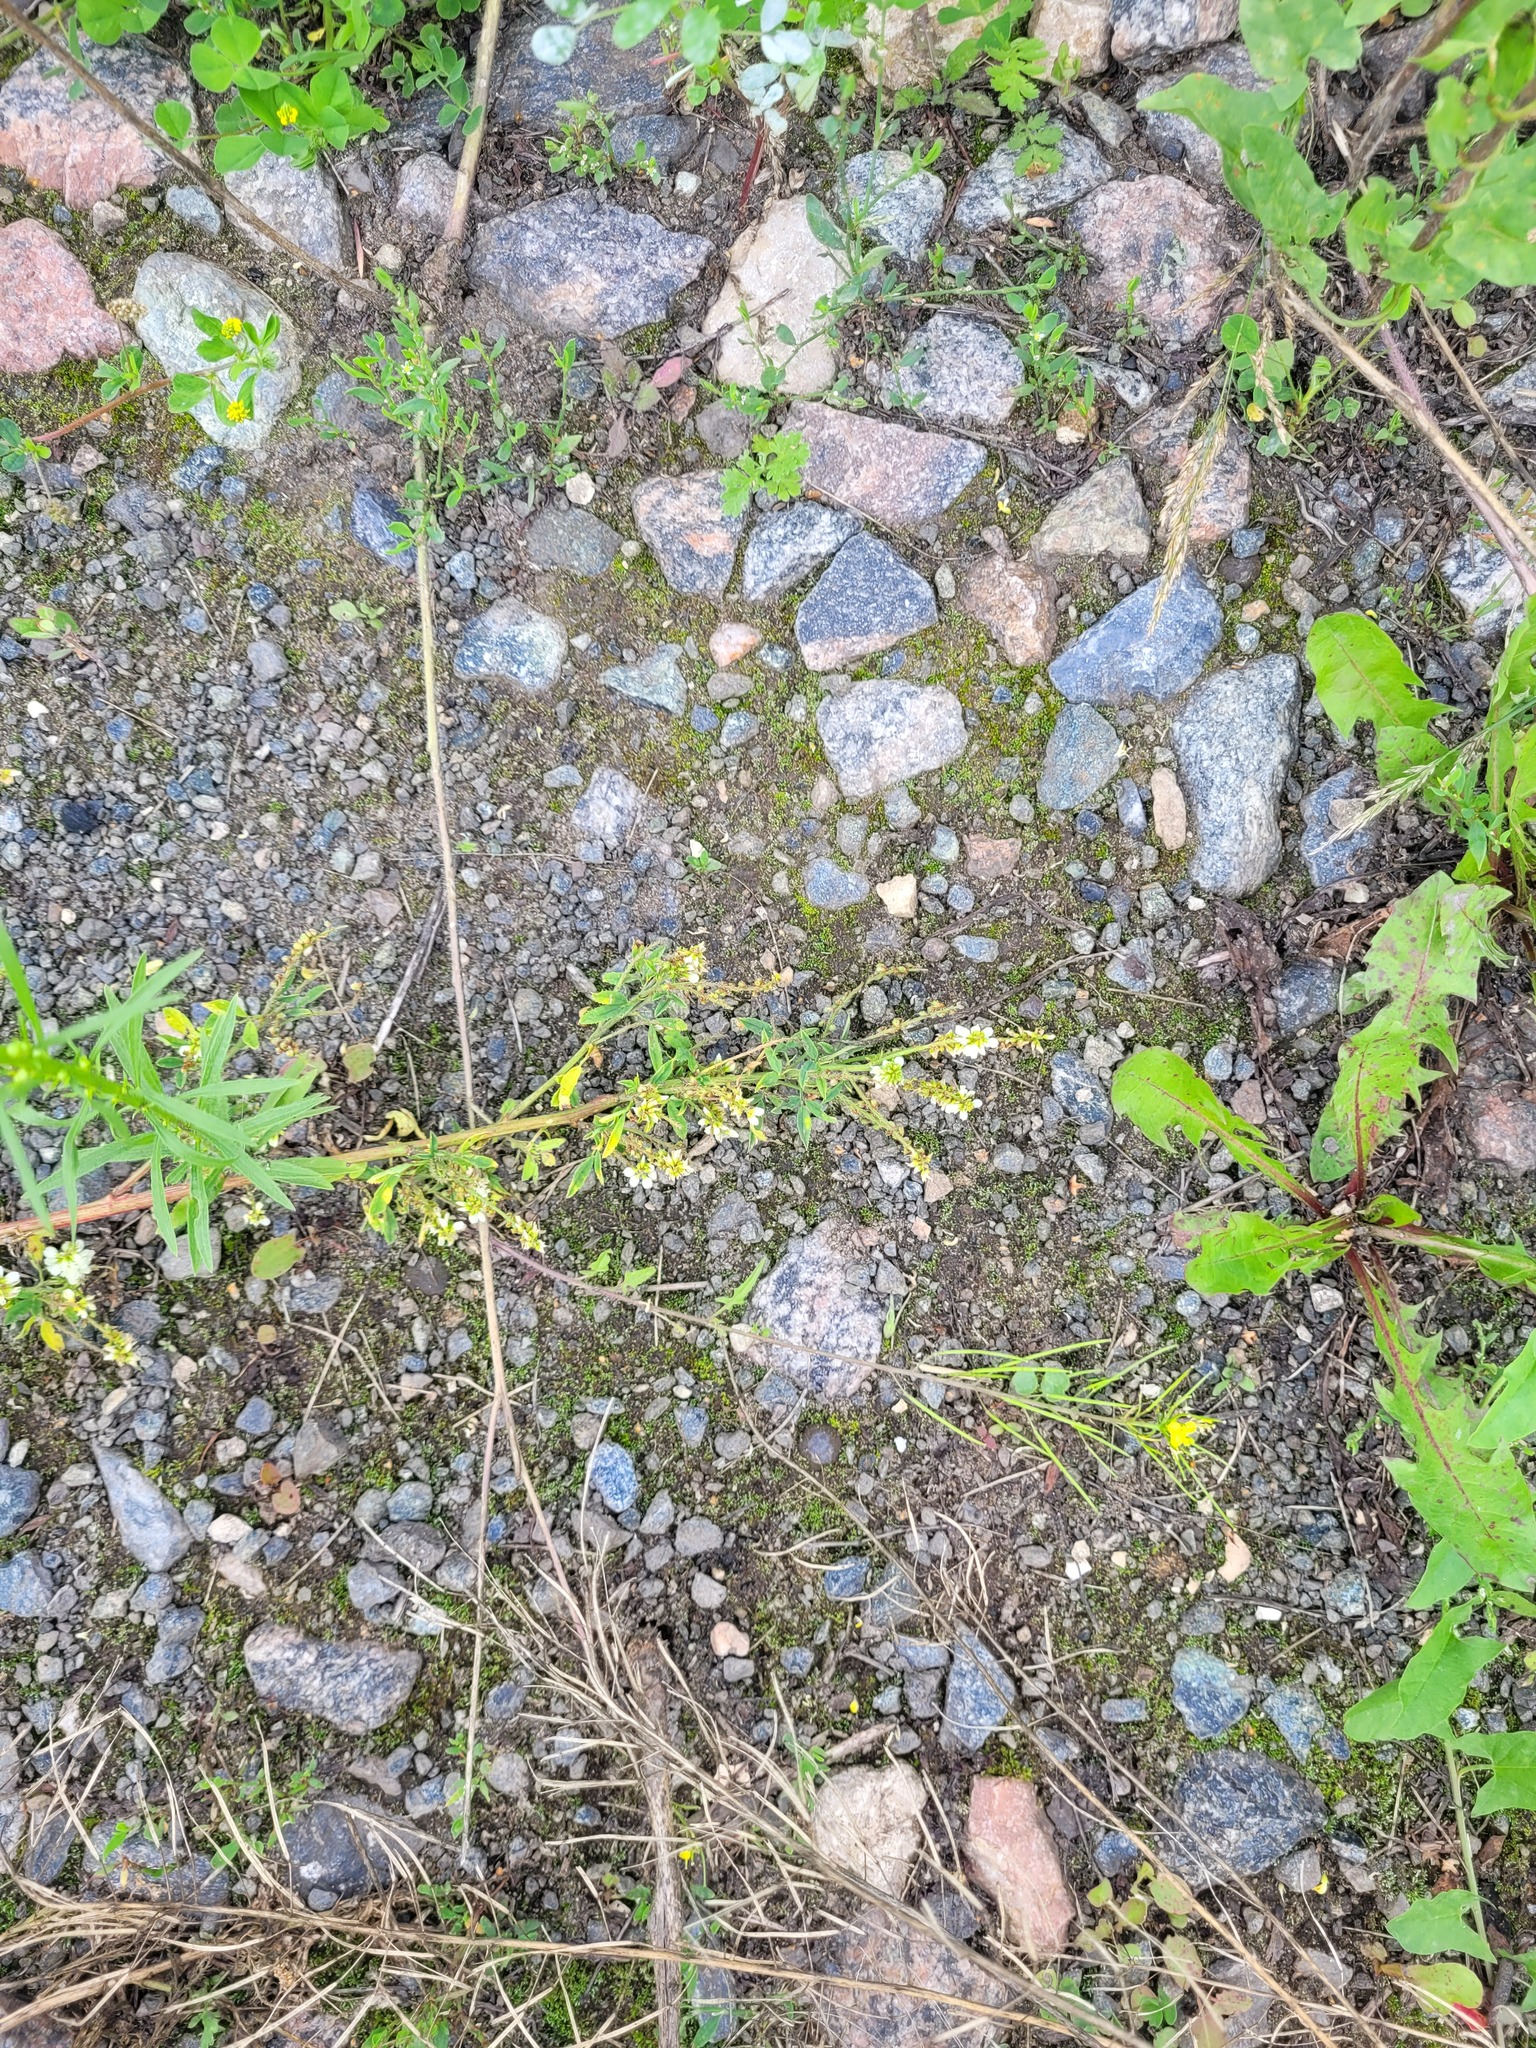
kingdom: Plantae
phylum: Tracheophyta
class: Magnoliopsida
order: Fabales
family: Fabaceae
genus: Melilotus
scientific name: Melilotus albus
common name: White melilot
